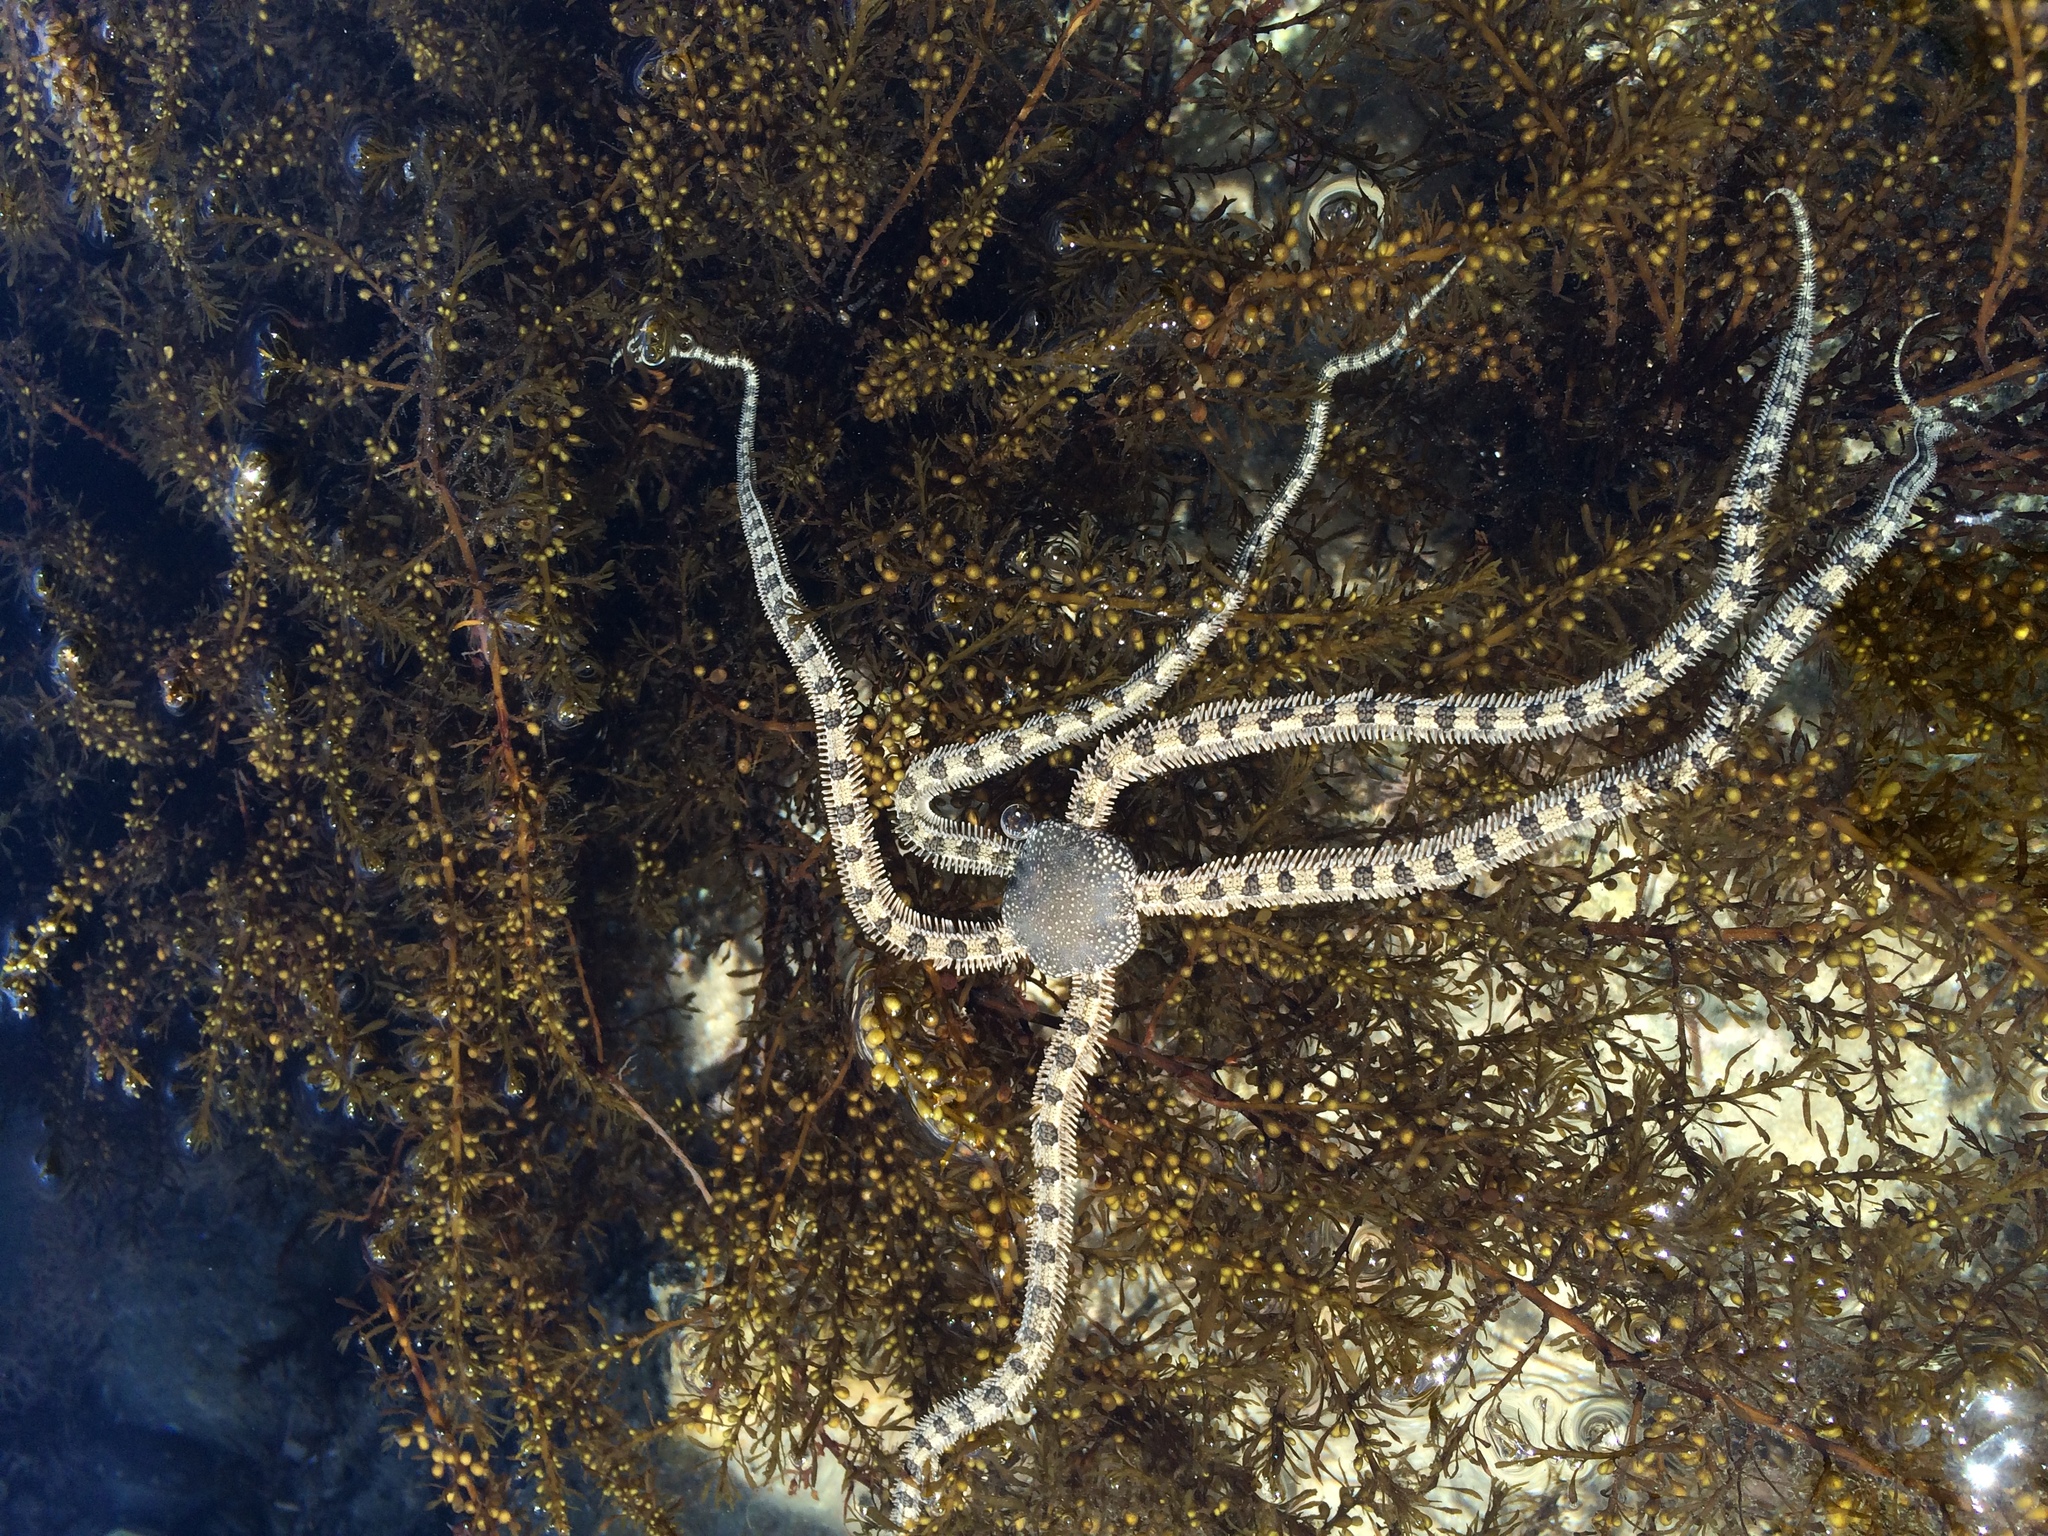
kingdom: Animalia
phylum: Echinodermata
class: Ophiuroidea
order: Amphilepidida
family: Ophionereididae
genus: Ophionereis
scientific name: Ophionereis annulata
